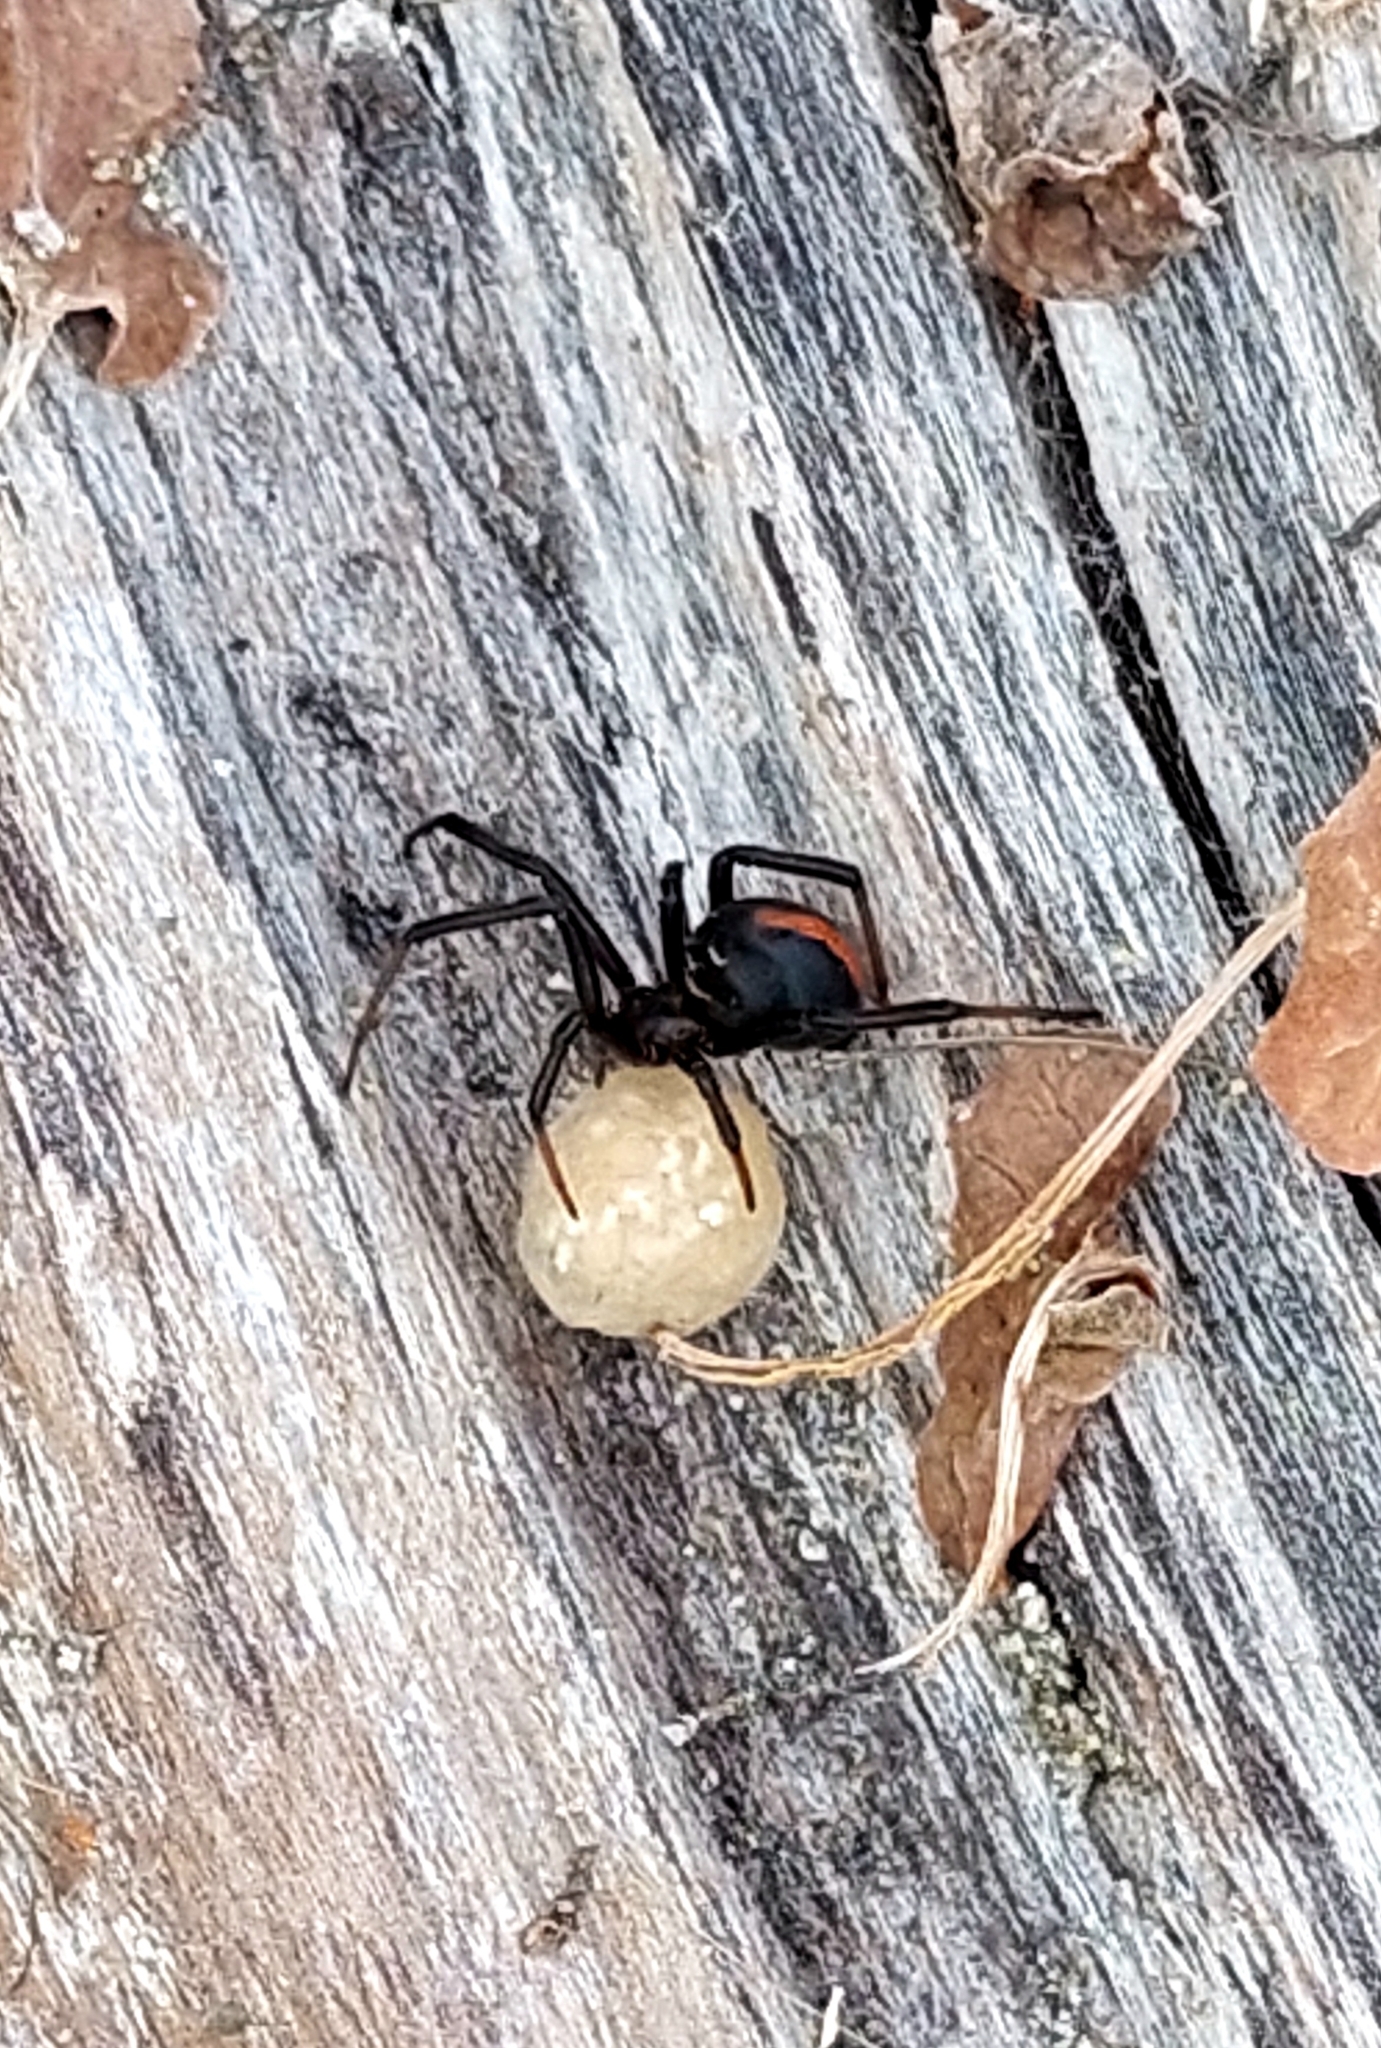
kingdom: Animalia
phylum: Arthropoda
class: Arachnida
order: Araneae
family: Theridiidae
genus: Latrodectus
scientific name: Latrodectus katipo
